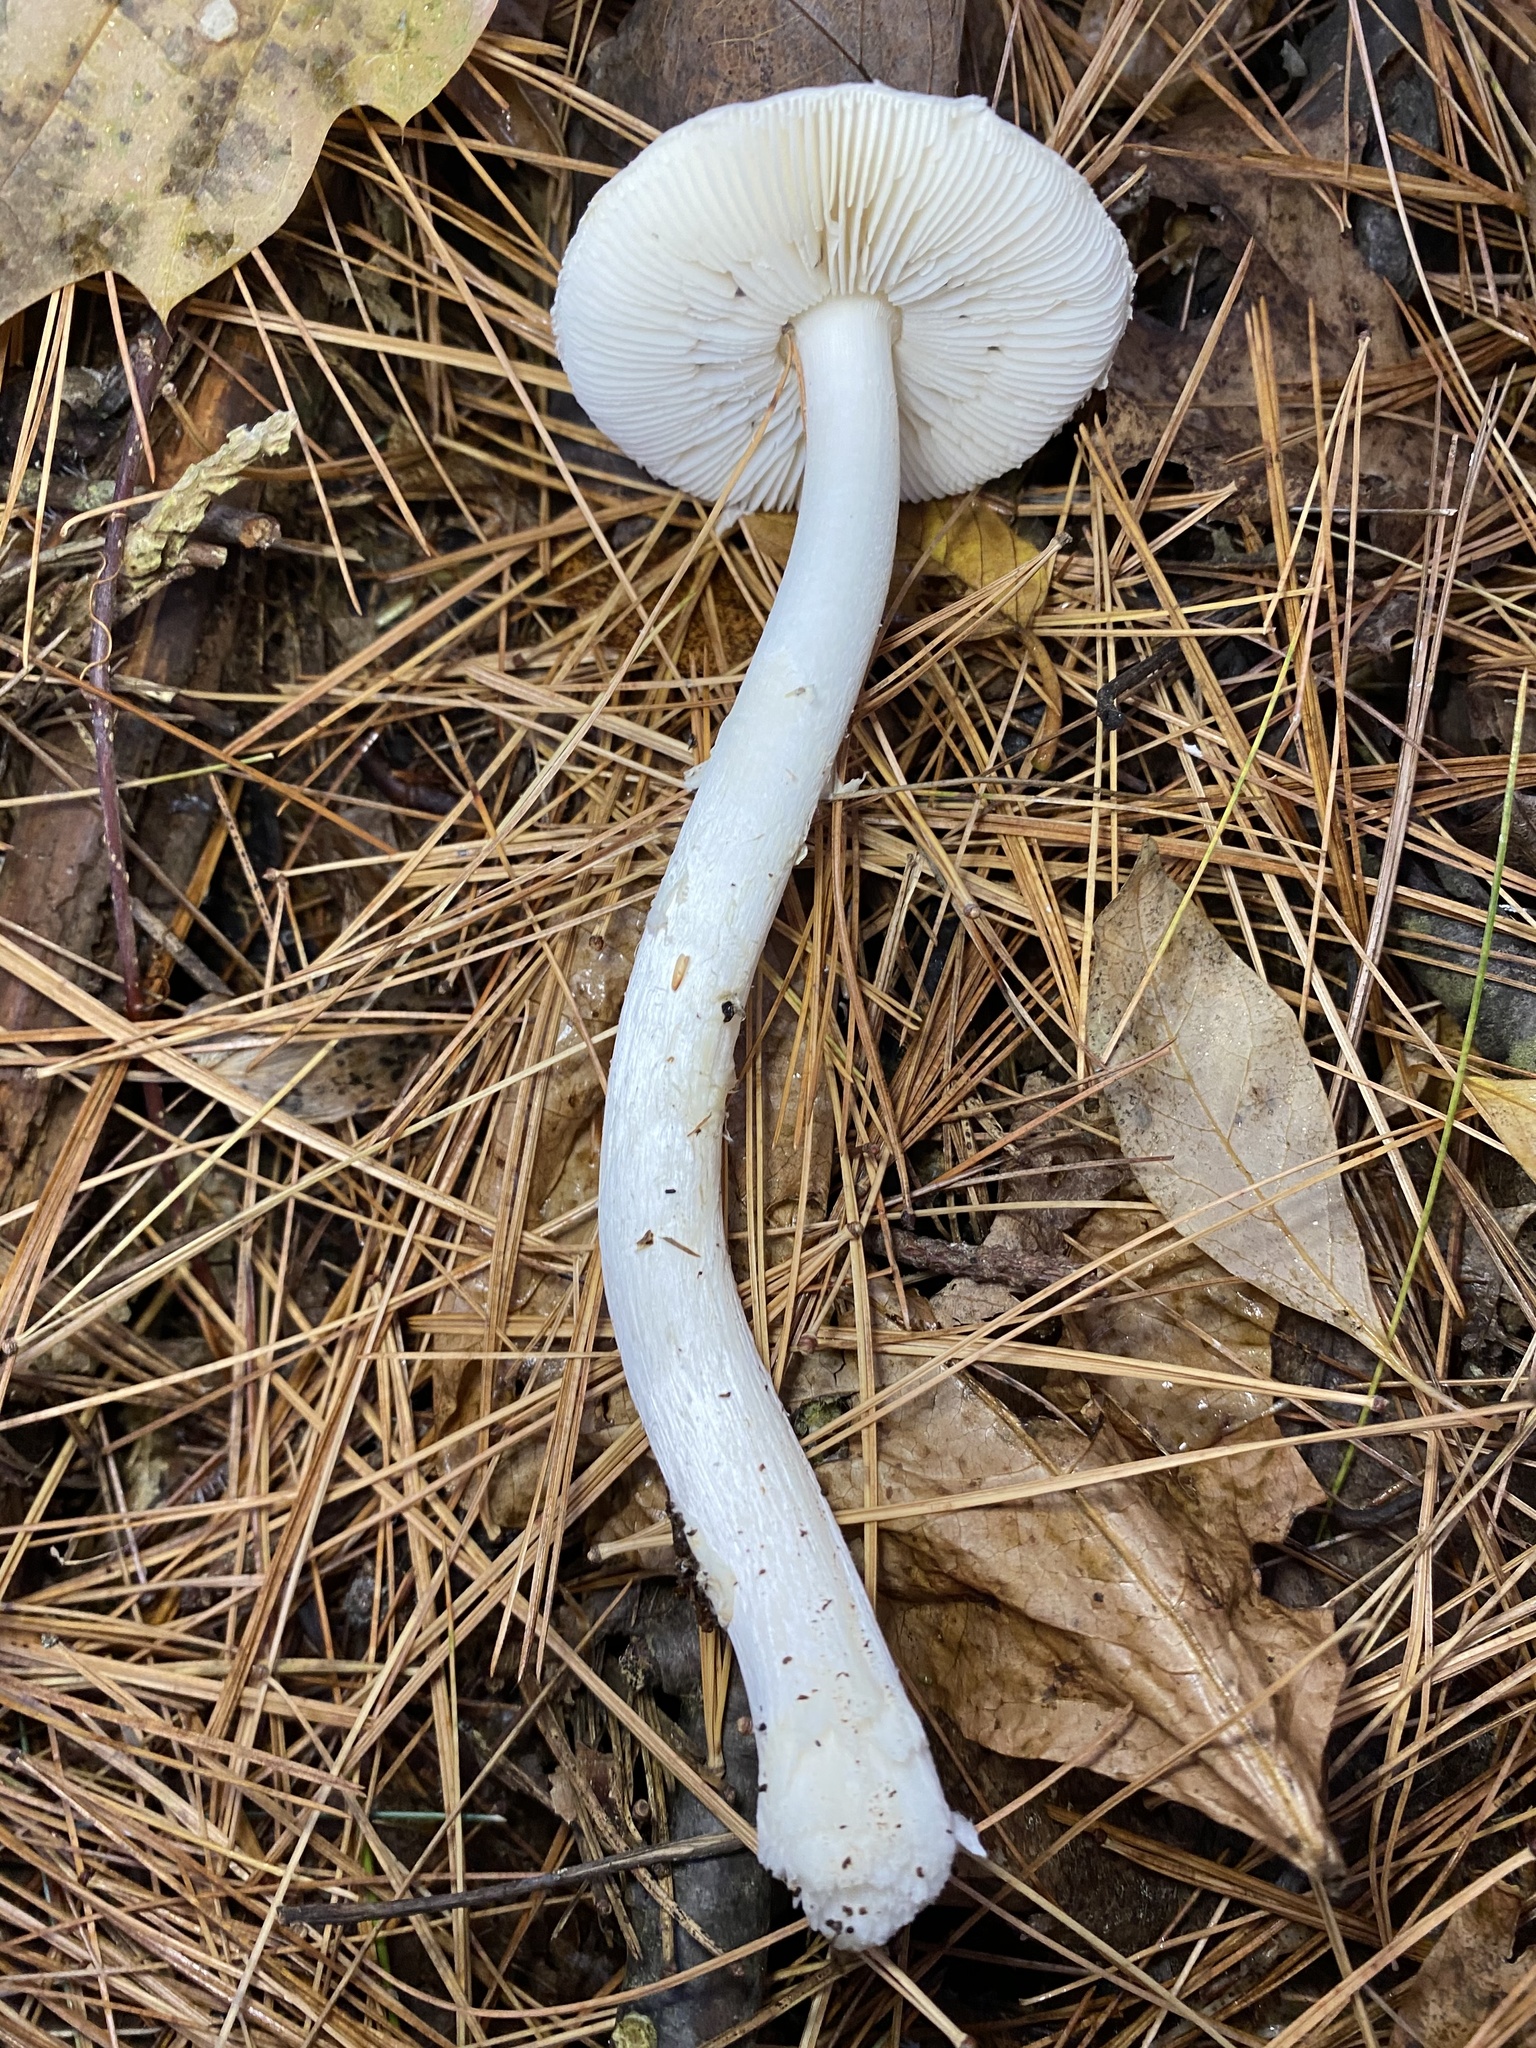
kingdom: Fungi
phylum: Basidiomycota
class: Agaricomycetes
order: Agaricales
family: Amanitaceae
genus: Amanita
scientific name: Amanita bisporigera
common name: Eastern north american destroying angel
